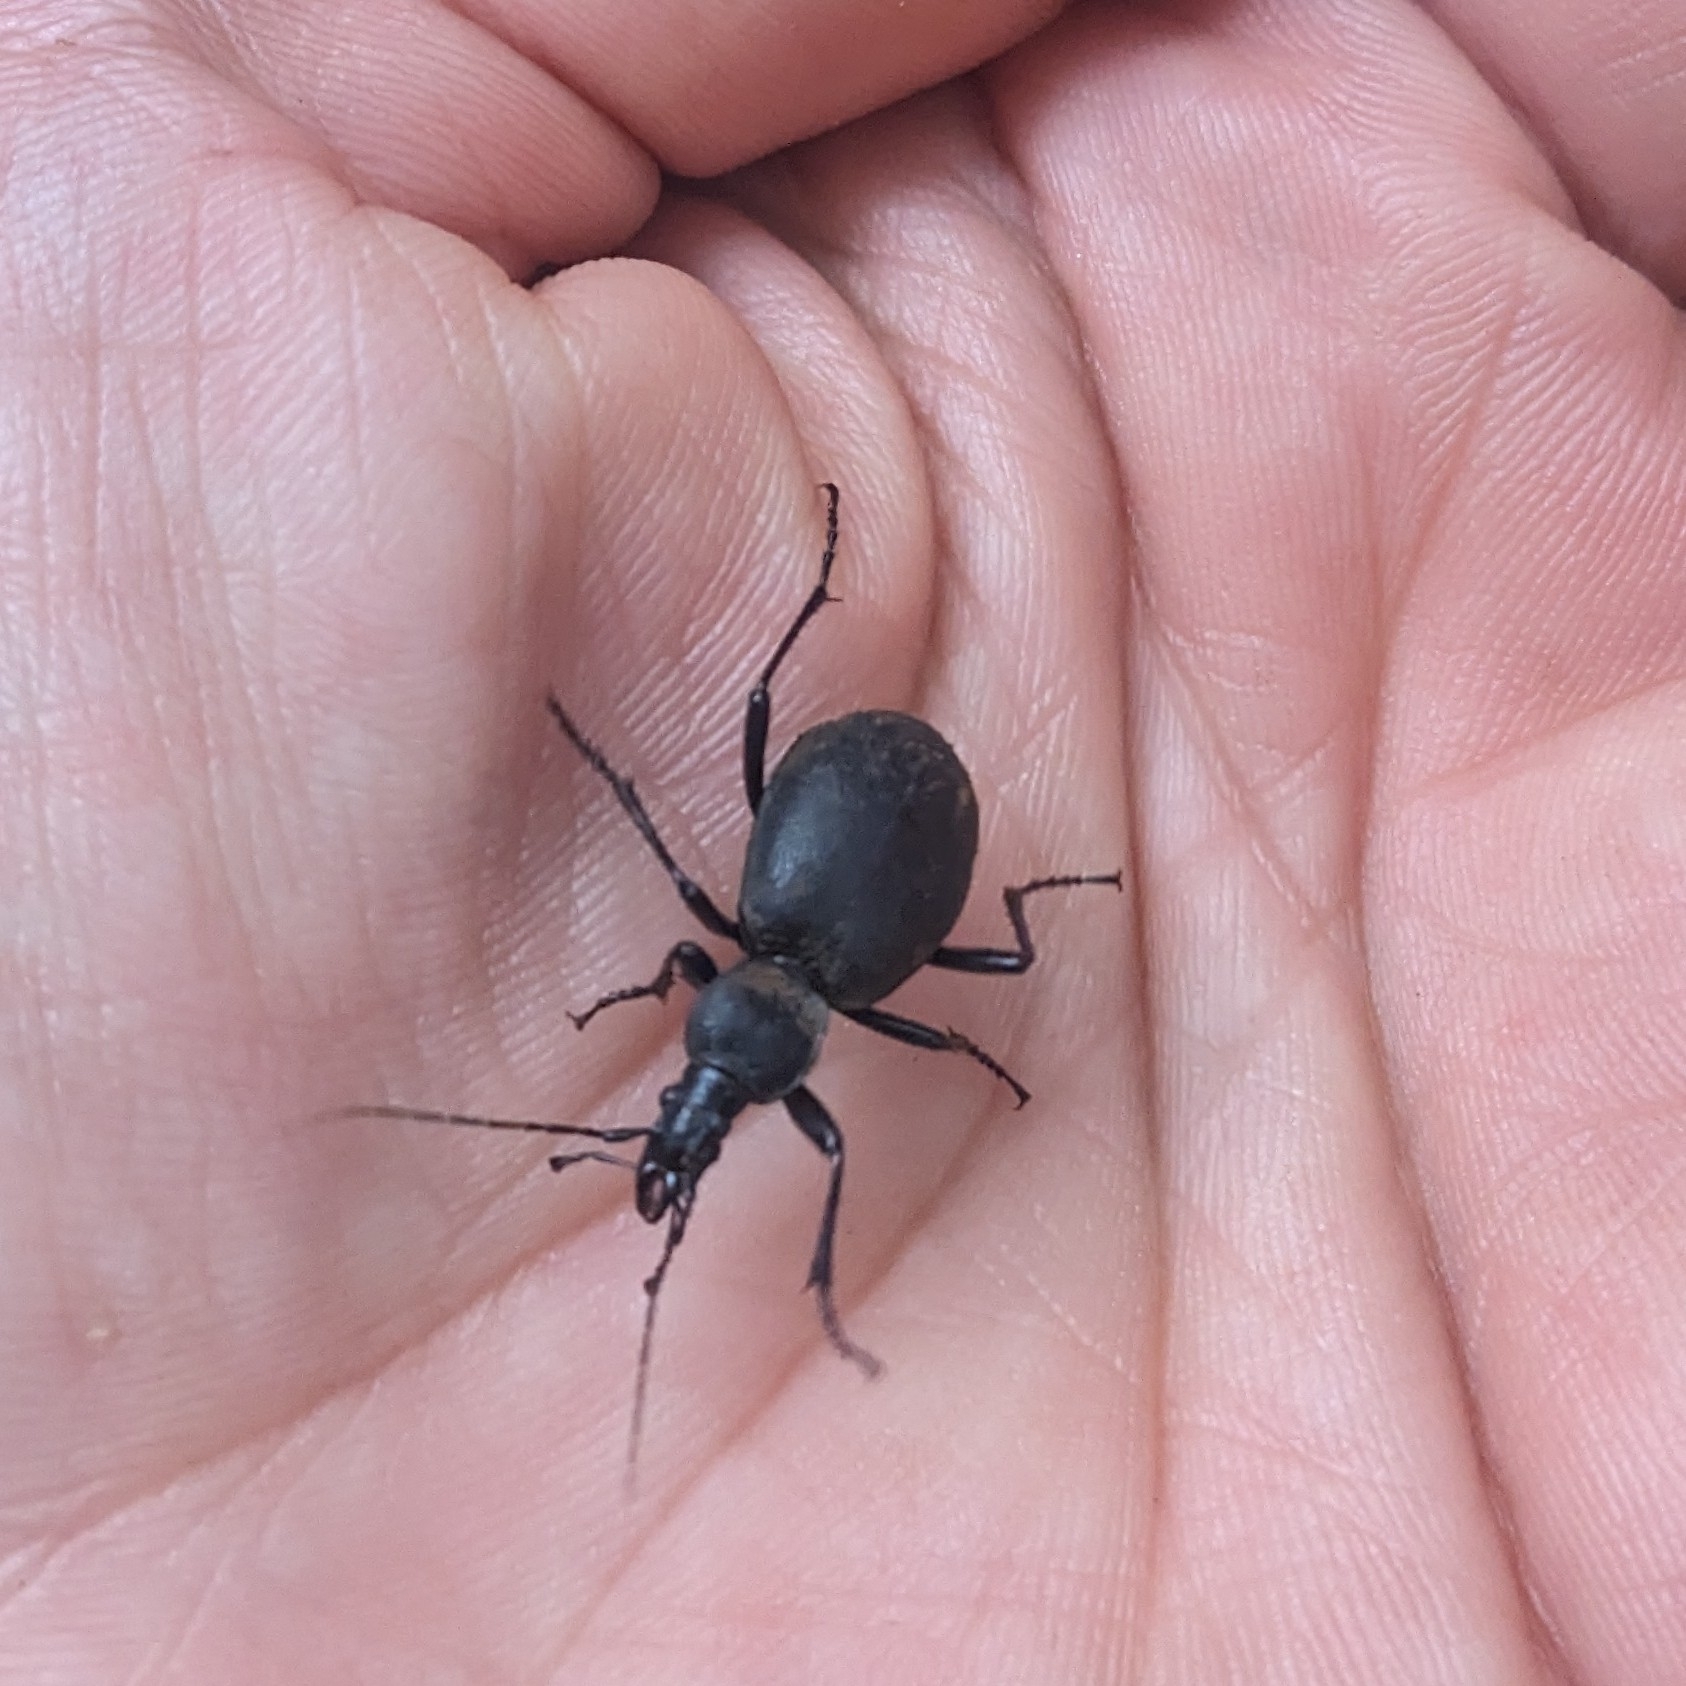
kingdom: Animalia
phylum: Arthropoda
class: Insecta
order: Coleoptera
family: Carabidae
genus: Cychrus
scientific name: Cychrus caraboides
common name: Snail hunter
